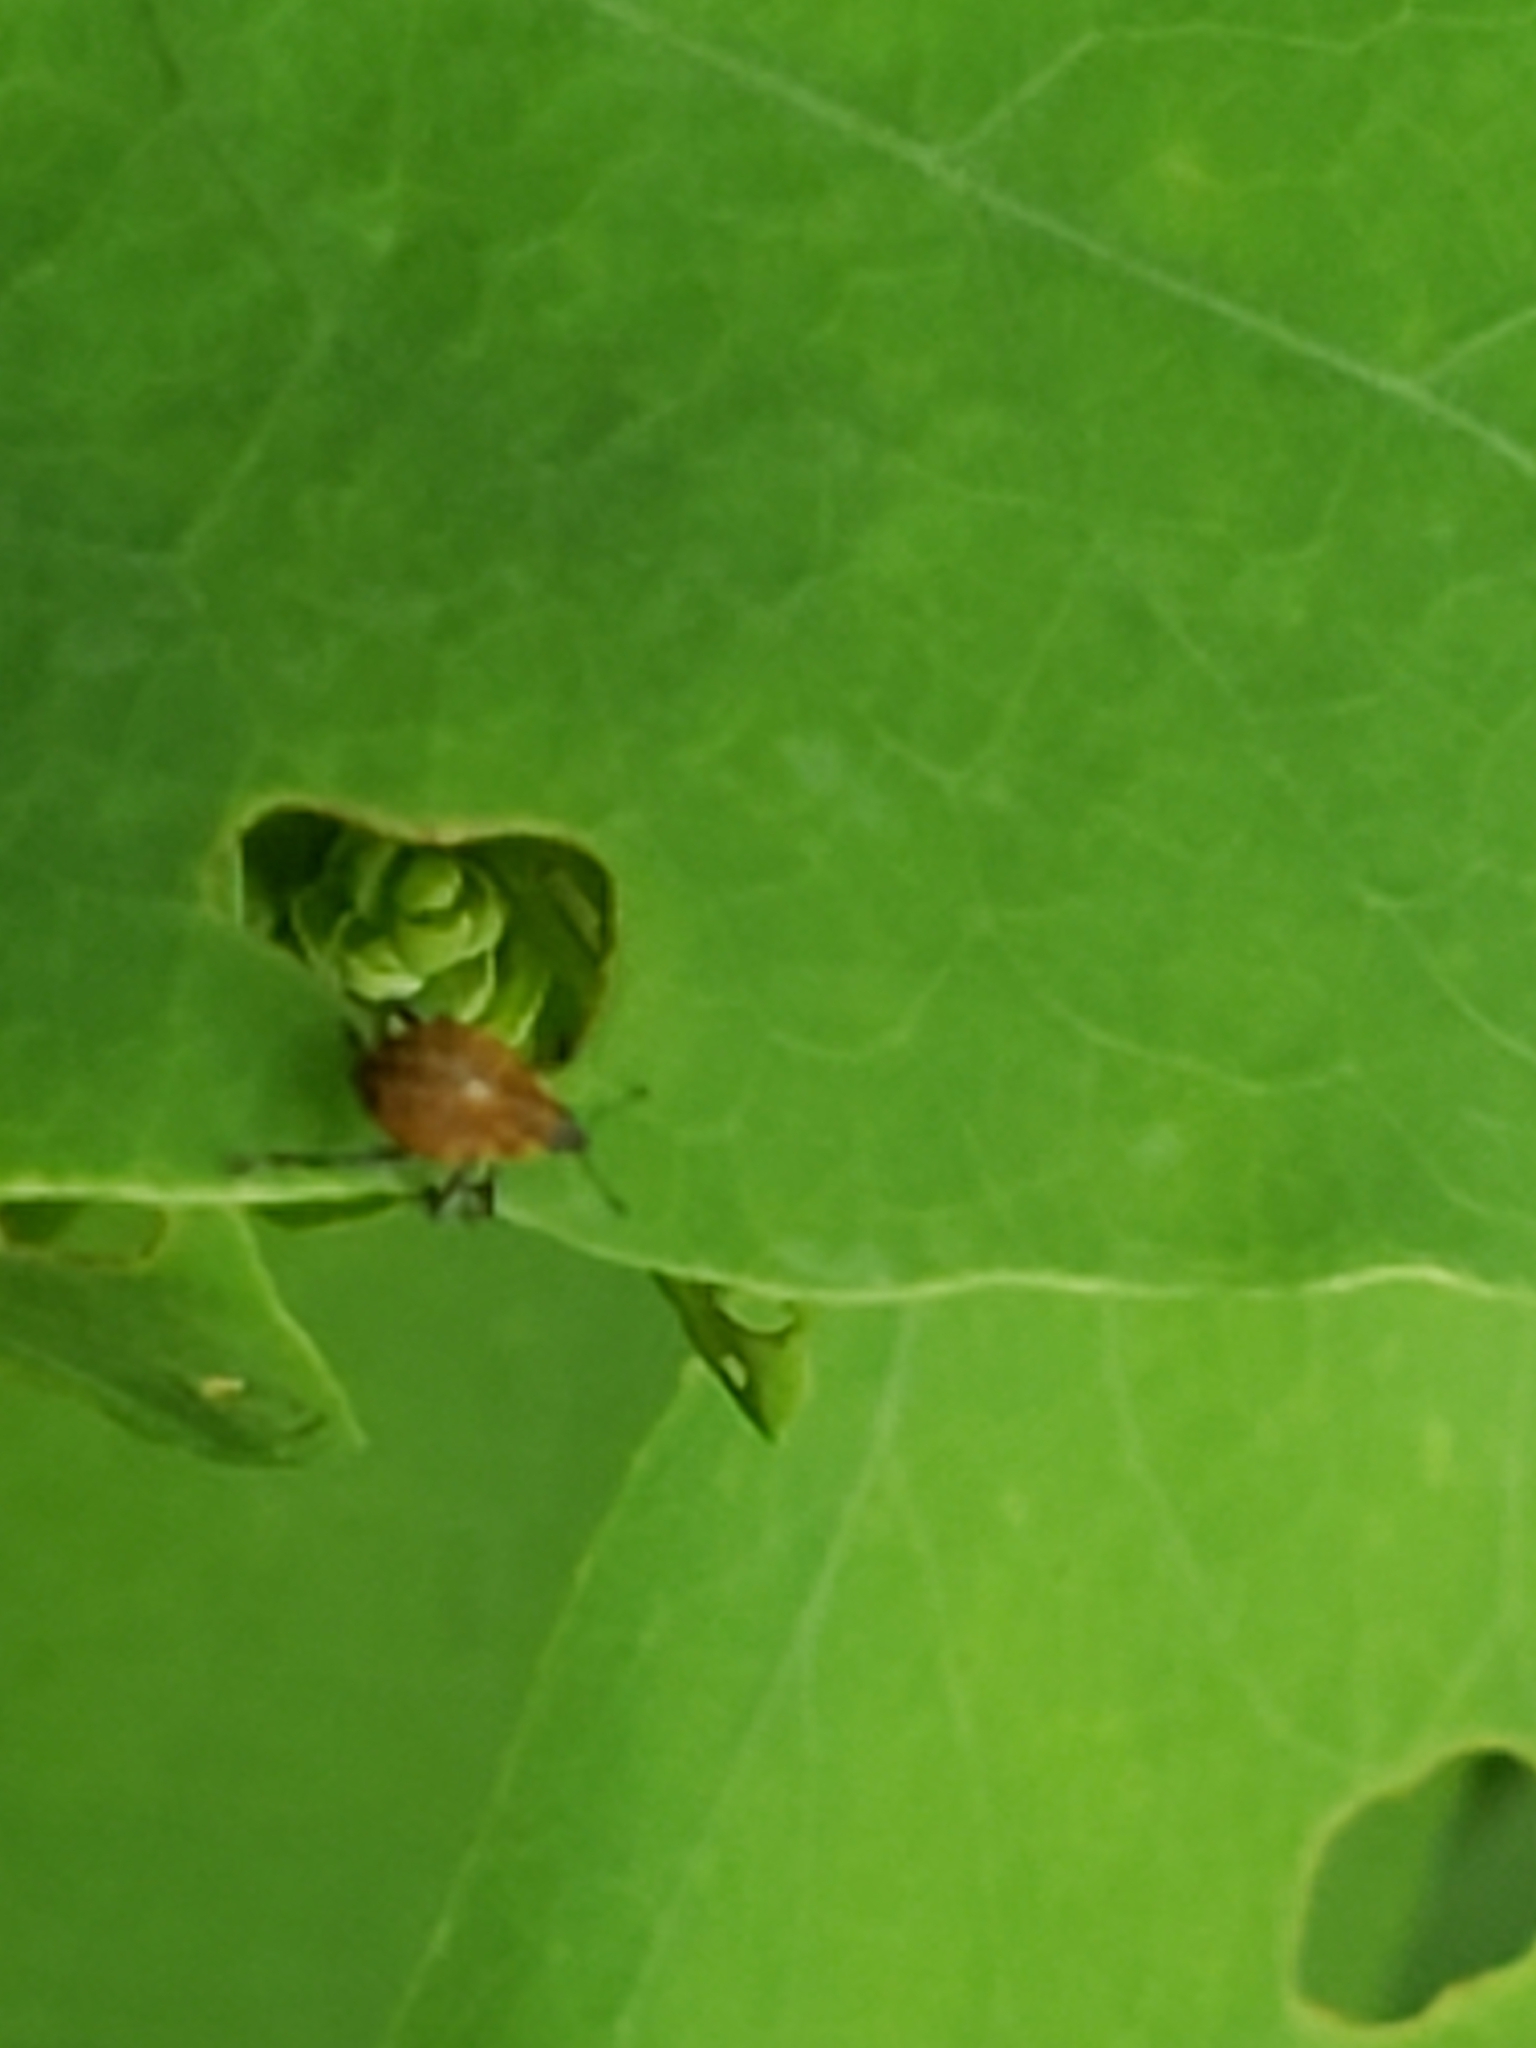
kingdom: Animalia
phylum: Arthropoda
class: Insecta
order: Coleoptera
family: Curculionidae
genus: Rhinoncomimus
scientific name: Rhinoncomimus latipes
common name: Chinese weevil
